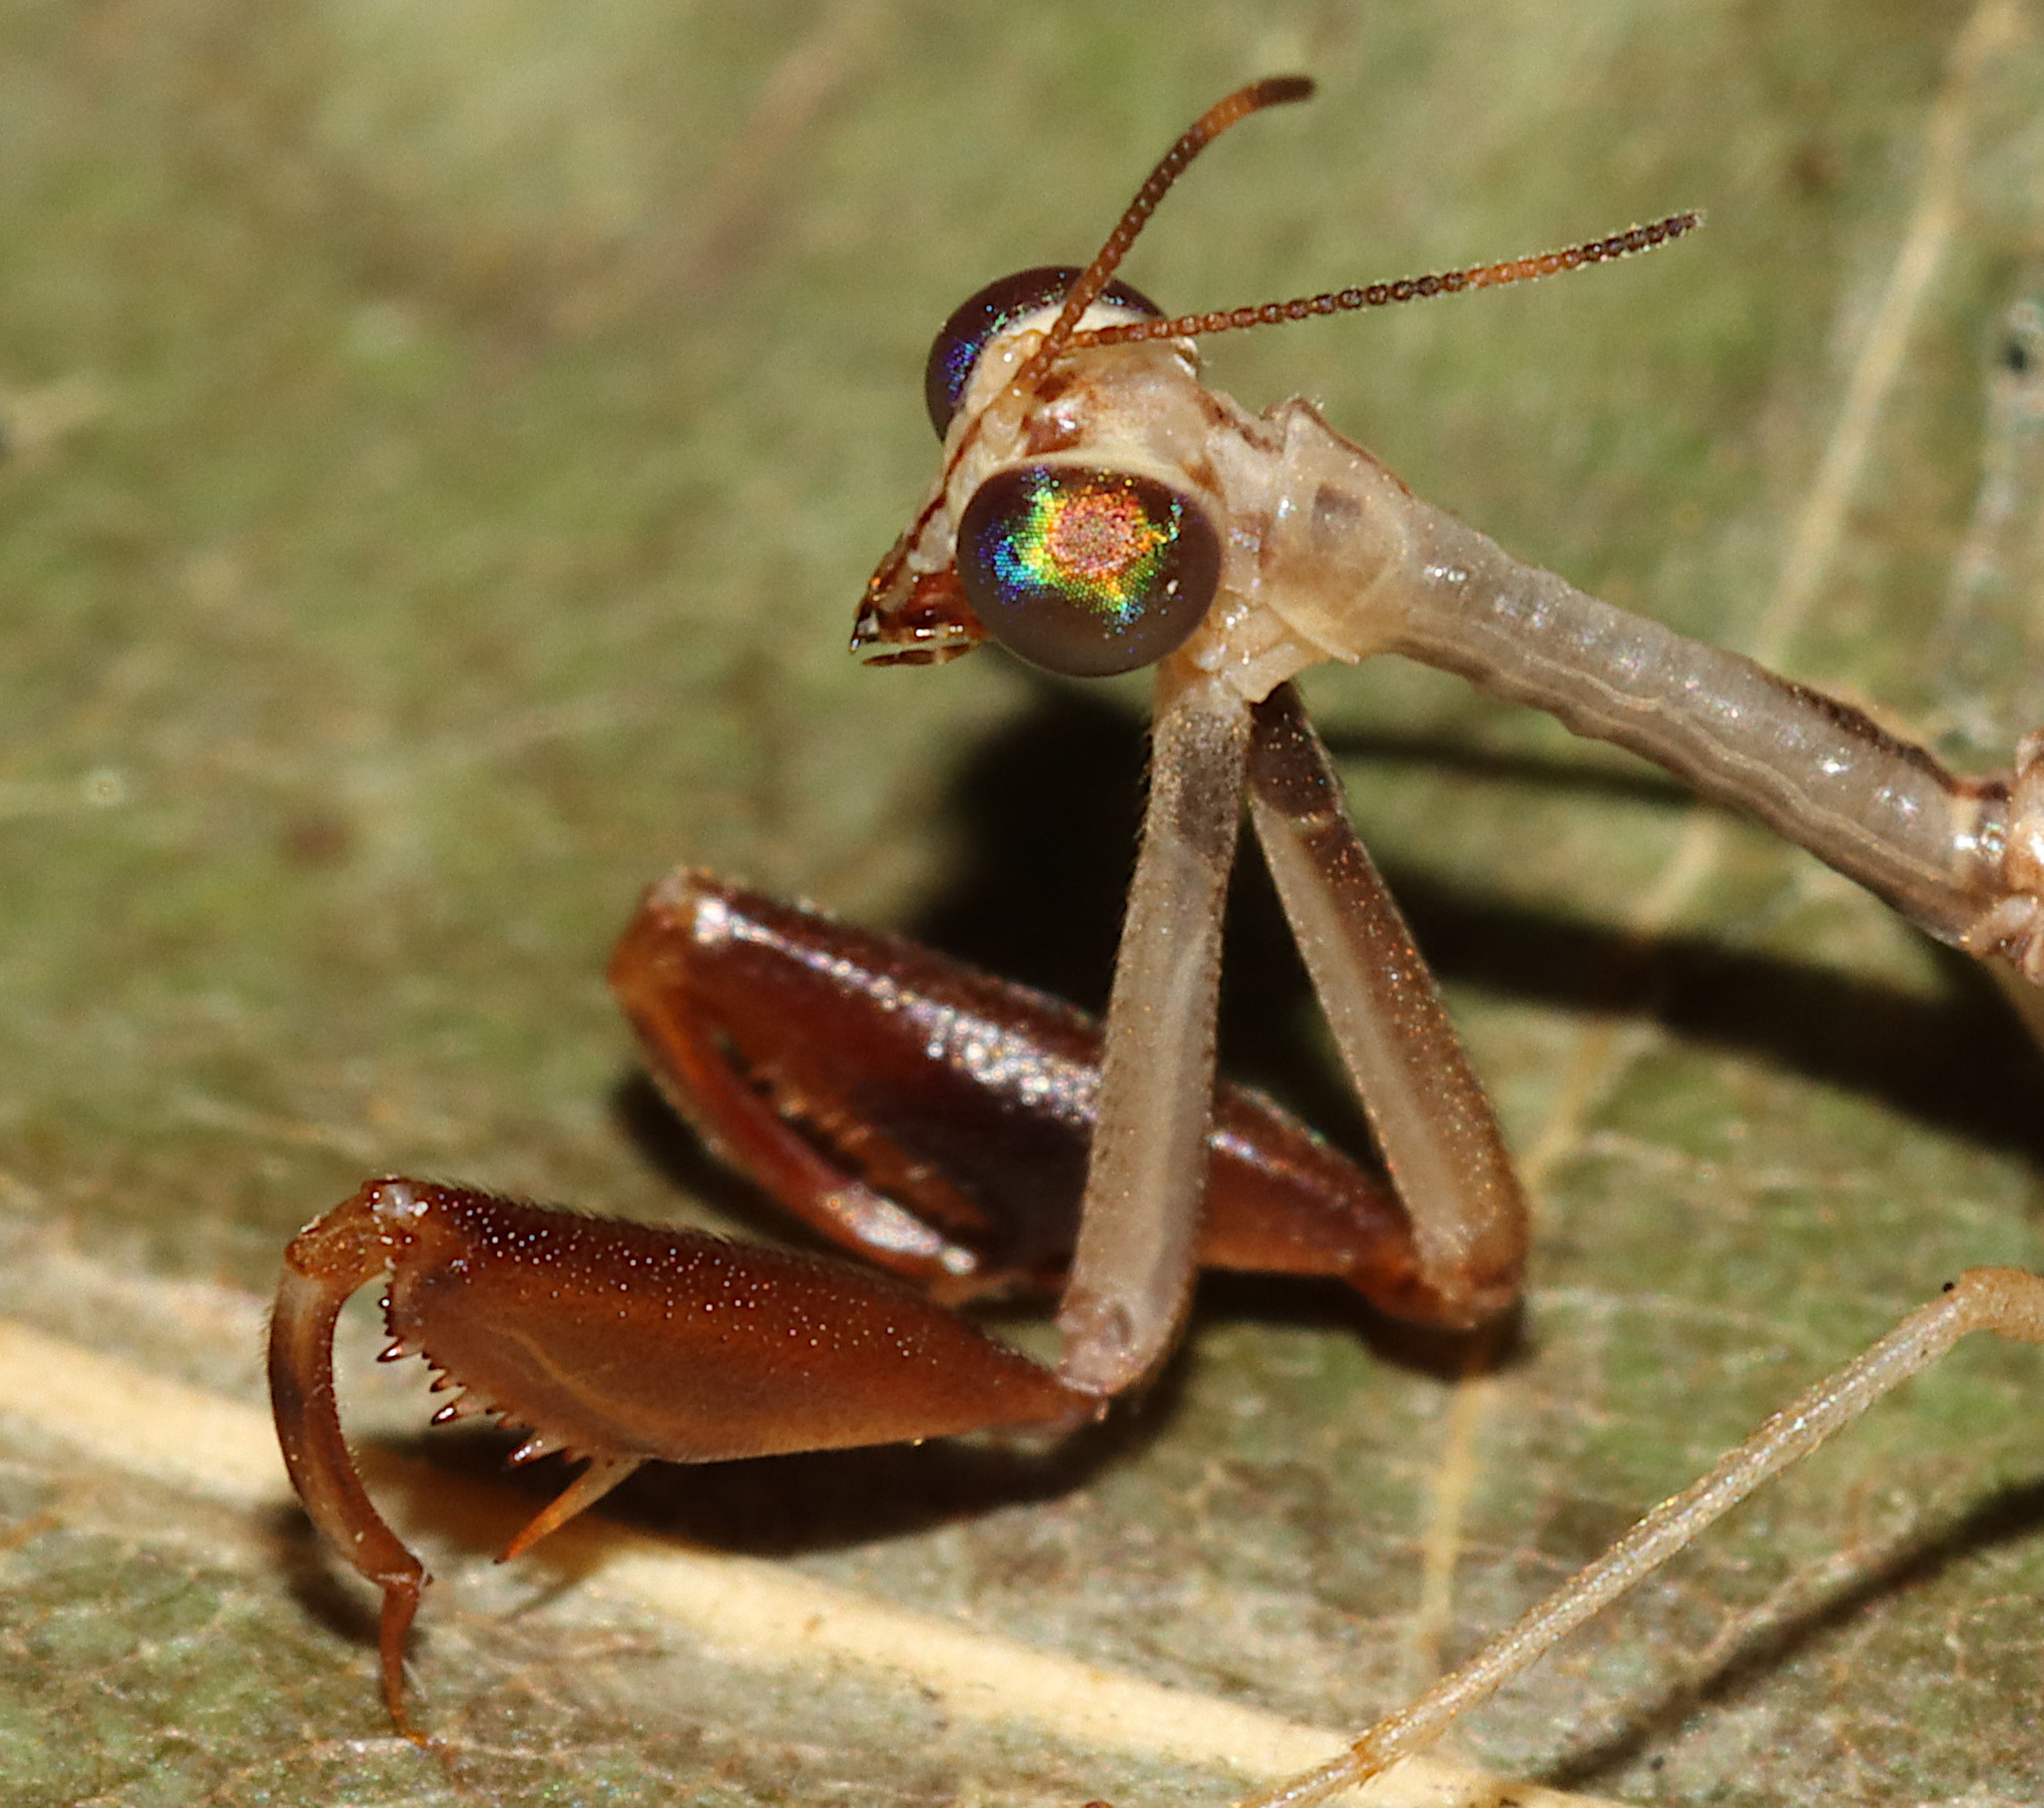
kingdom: Animalia
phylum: Arthropoda
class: Insecta
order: Neuroptera
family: Mantispidae
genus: Dicromantispa
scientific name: Dicromantispa interrupta
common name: Four-spotted mantidfly
